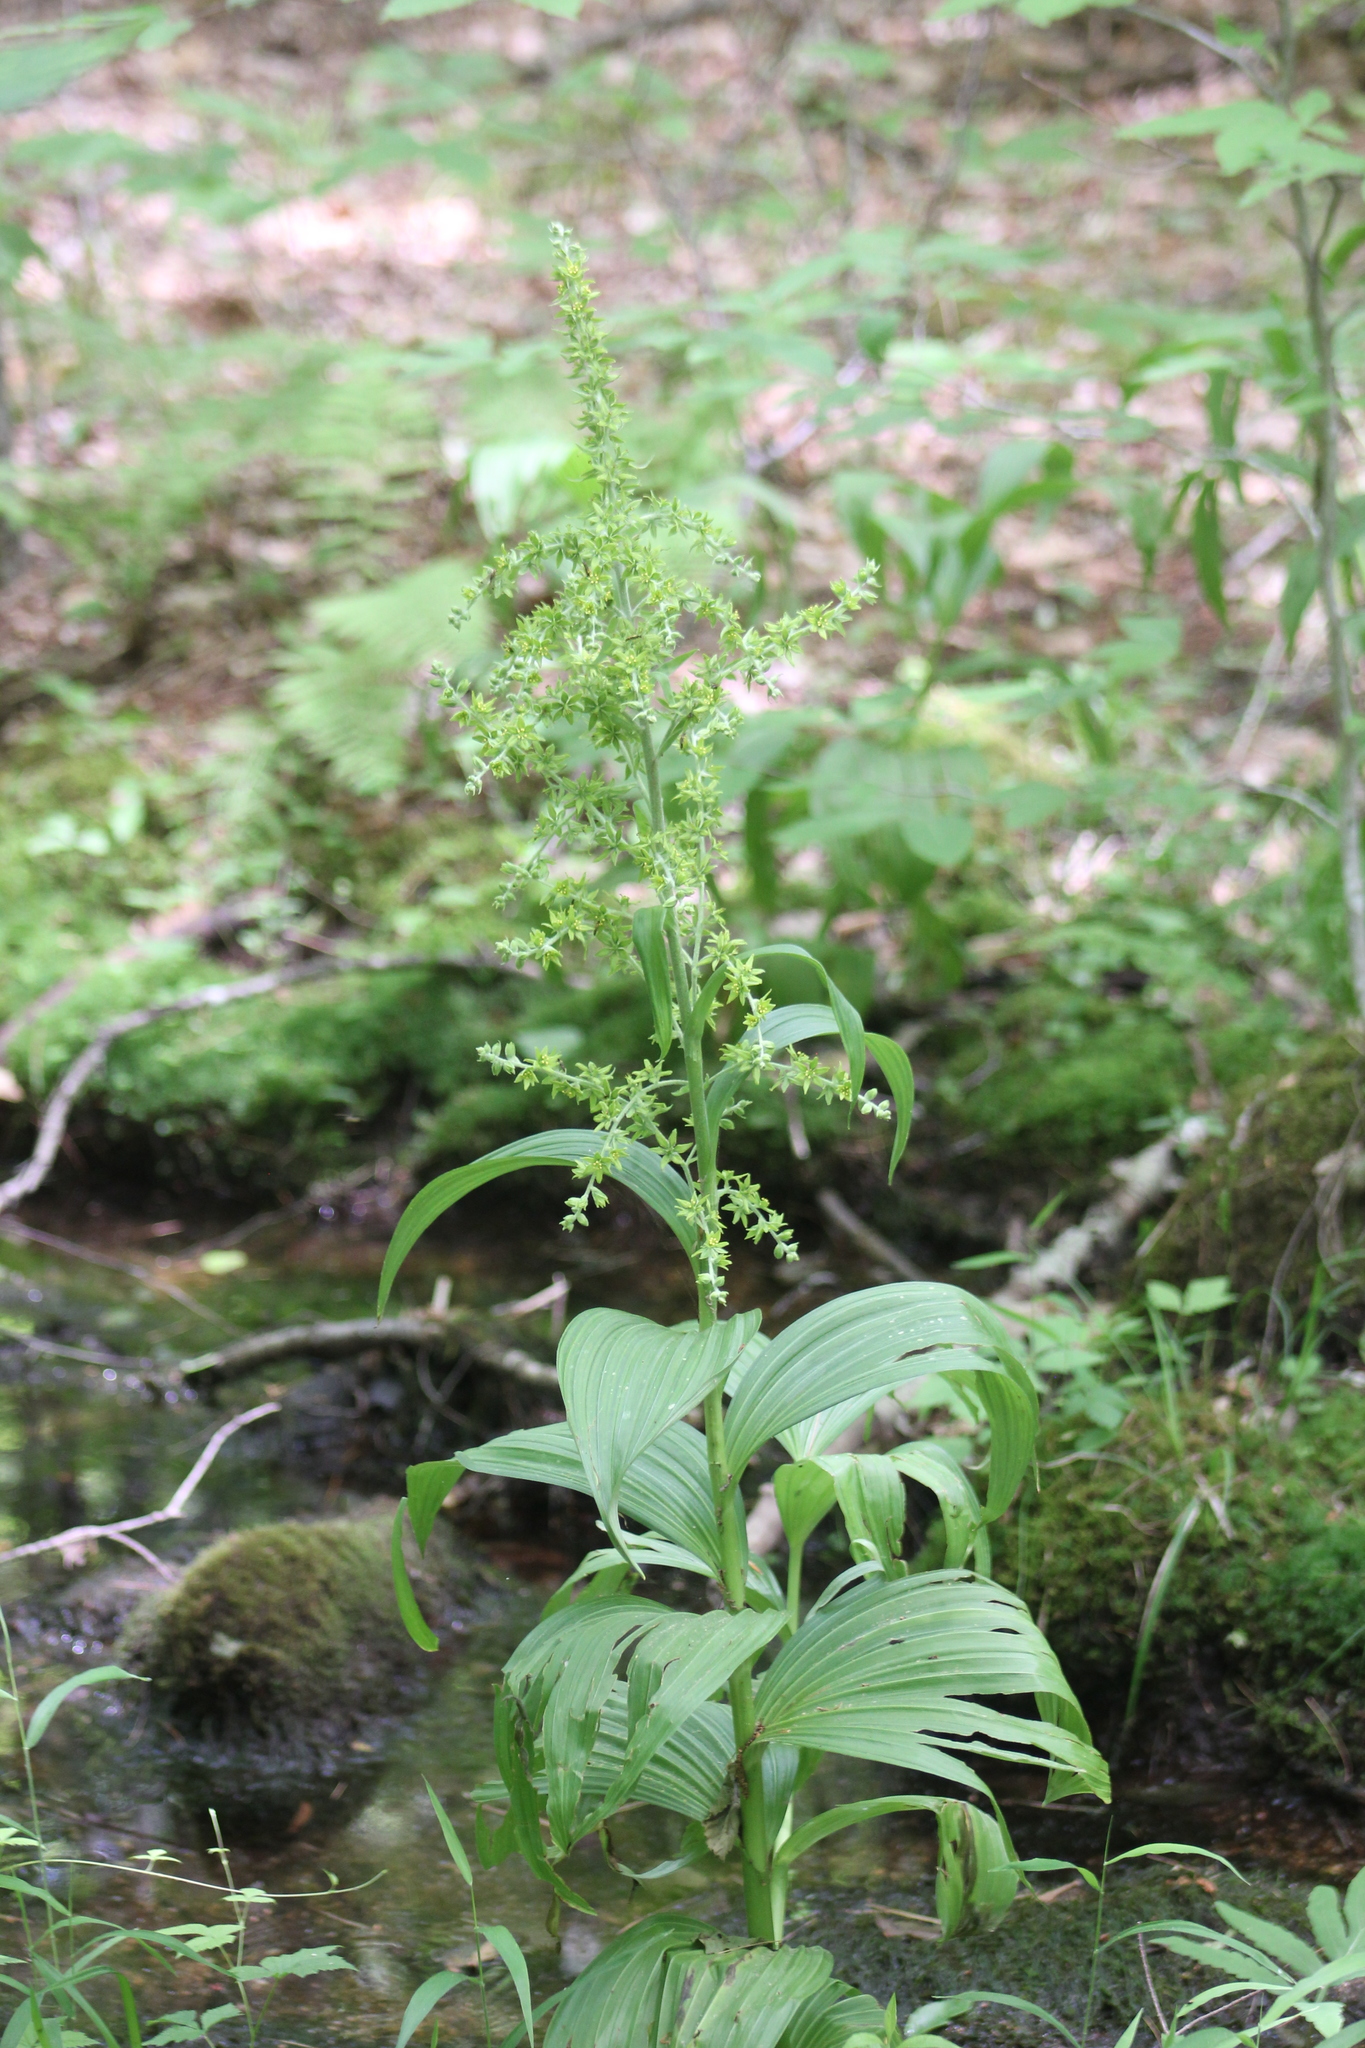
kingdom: Plantae
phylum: Tracheophyta
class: Liliopsida
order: Liliales
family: Melanthiaceae
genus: Veratrum
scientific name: Veratrum viride
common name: American false hellebore
